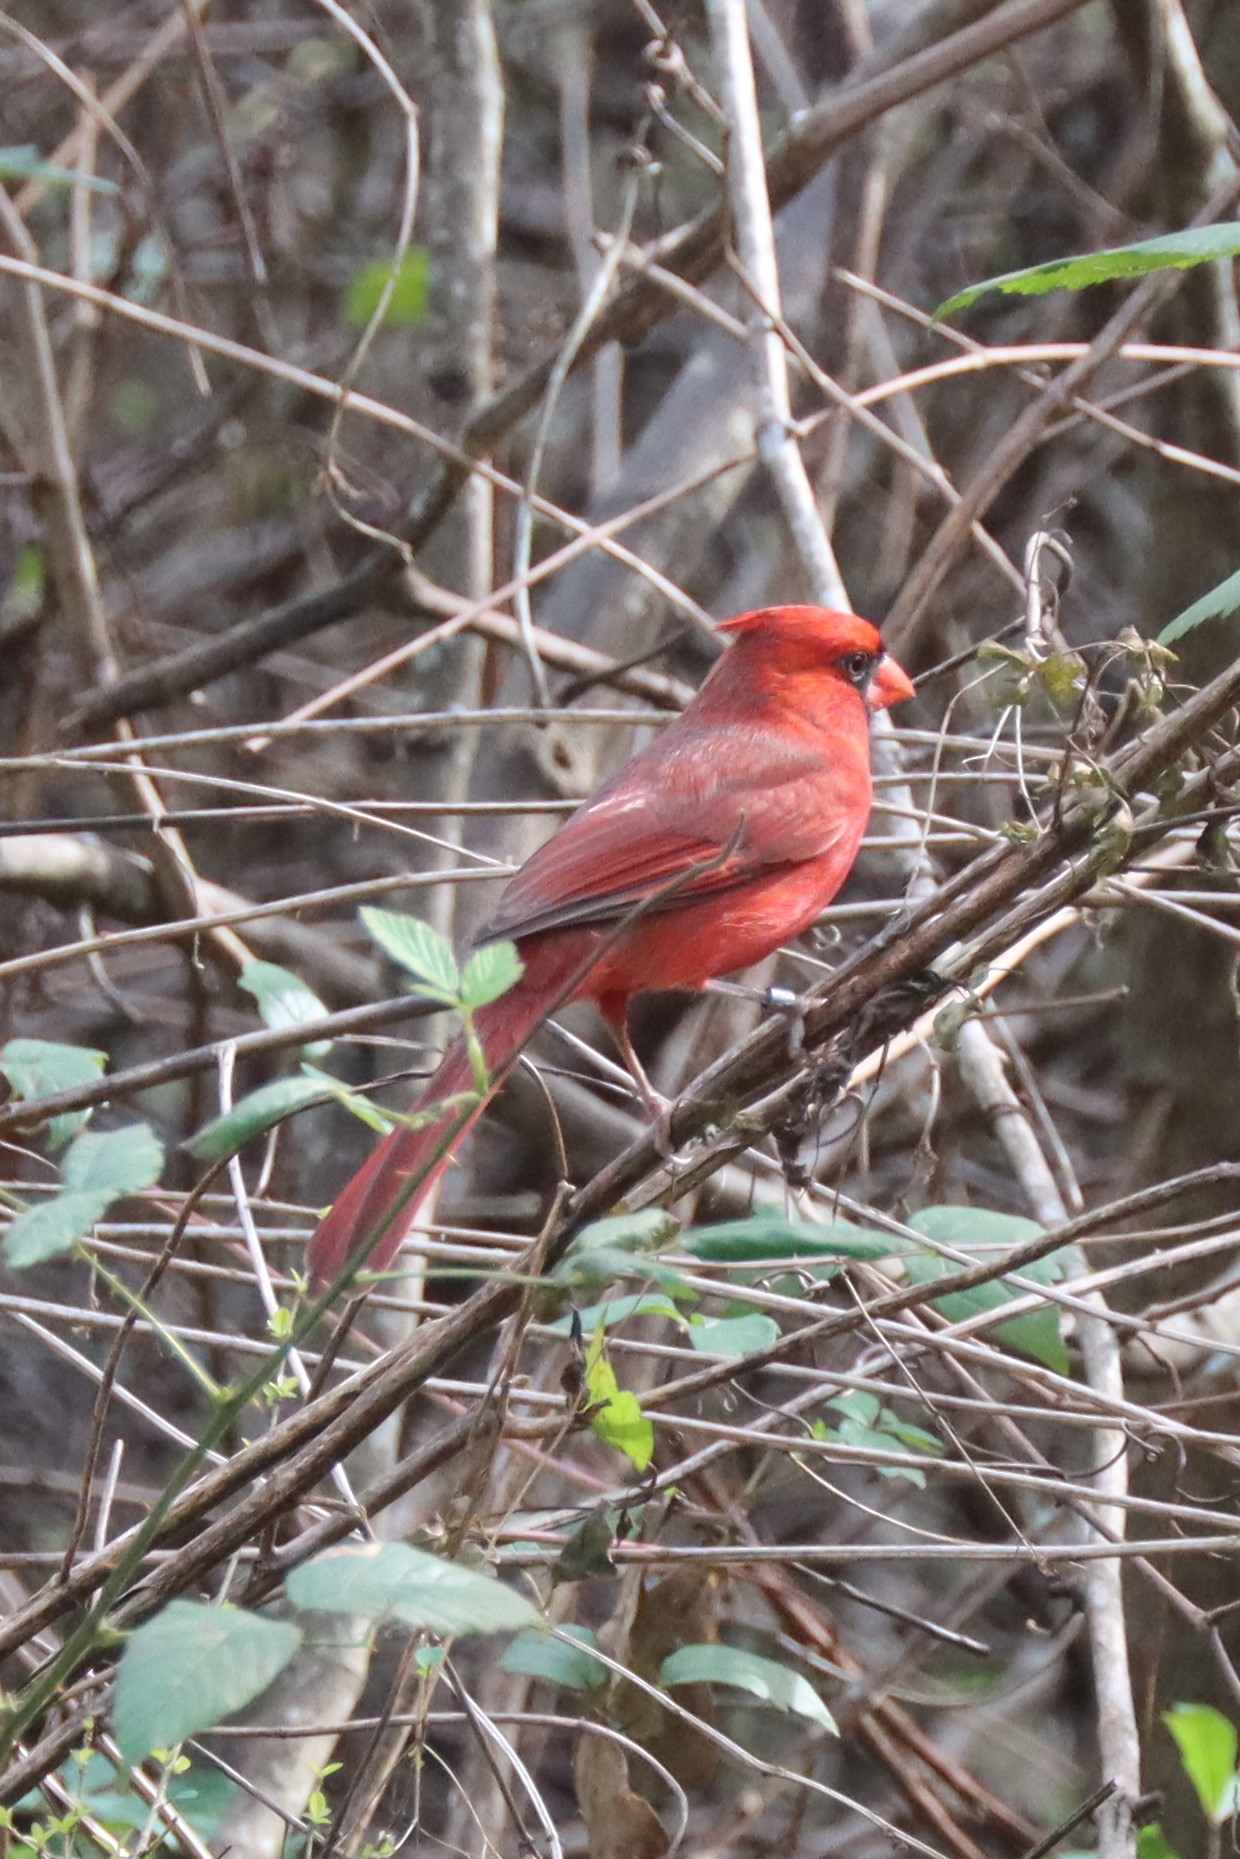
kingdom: Animalia
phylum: Chordata
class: Aves
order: Passeriformes
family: Cardinalidae
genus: Cardinalis
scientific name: Cardinalis cardinalis
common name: Northern cardinal
